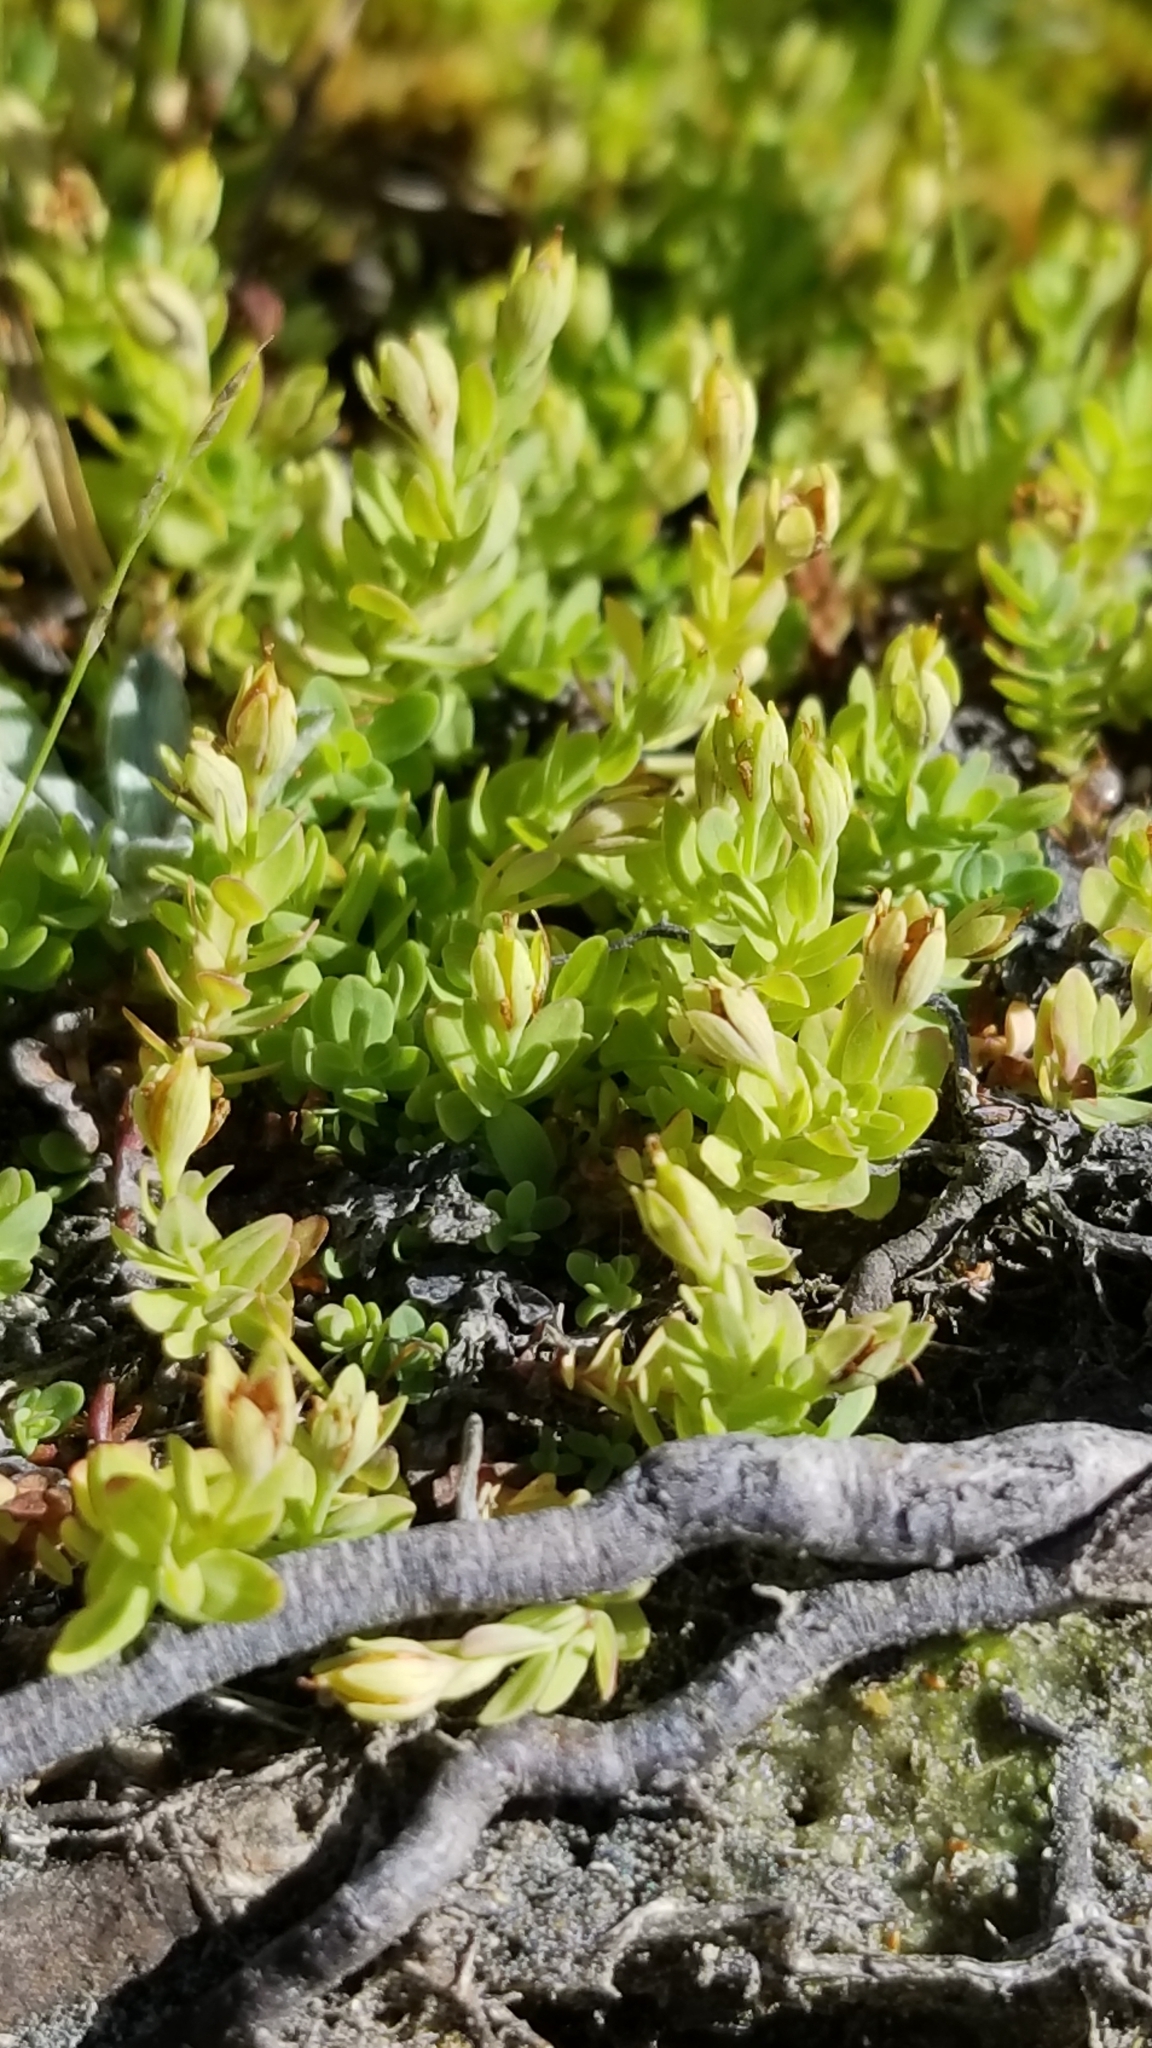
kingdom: Plantae
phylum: Tracheophyta
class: Magnoliopsida
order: Malpighiales
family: Hypericaceae
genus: Hypericum
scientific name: Hypericum anagalloides
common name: Bog st. john's-wort
